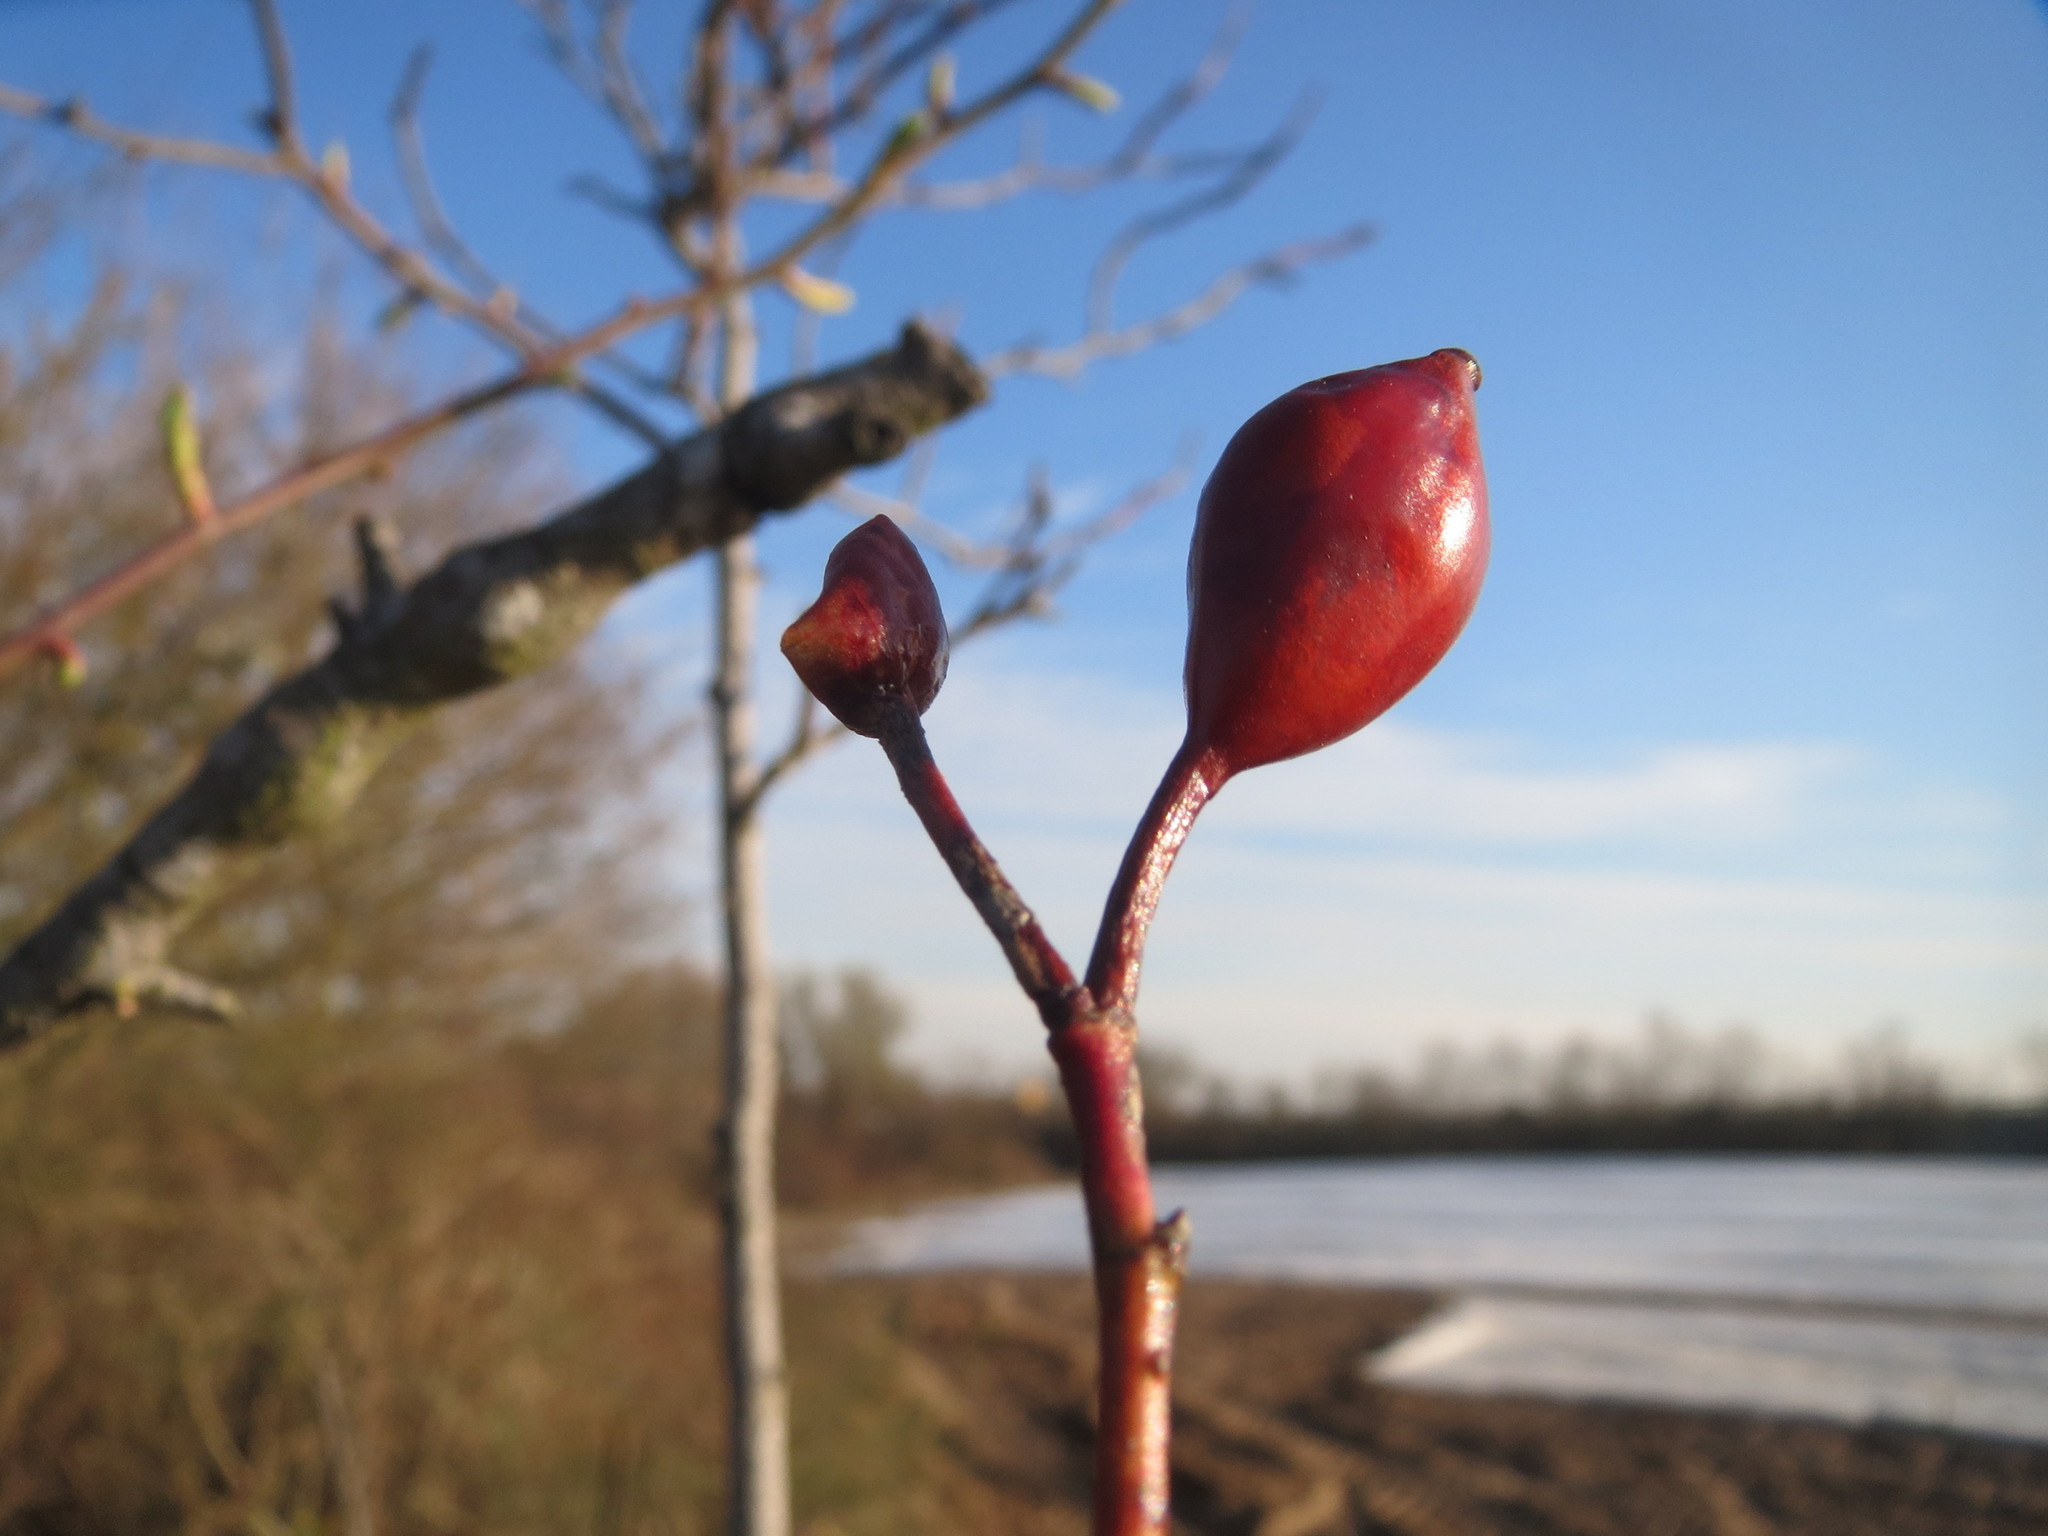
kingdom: Plantae
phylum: Tracheophyta
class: Magnoliopsida
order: Rosales
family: Rosaceae
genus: Rosa
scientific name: Rosa canina
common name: Dog rose
